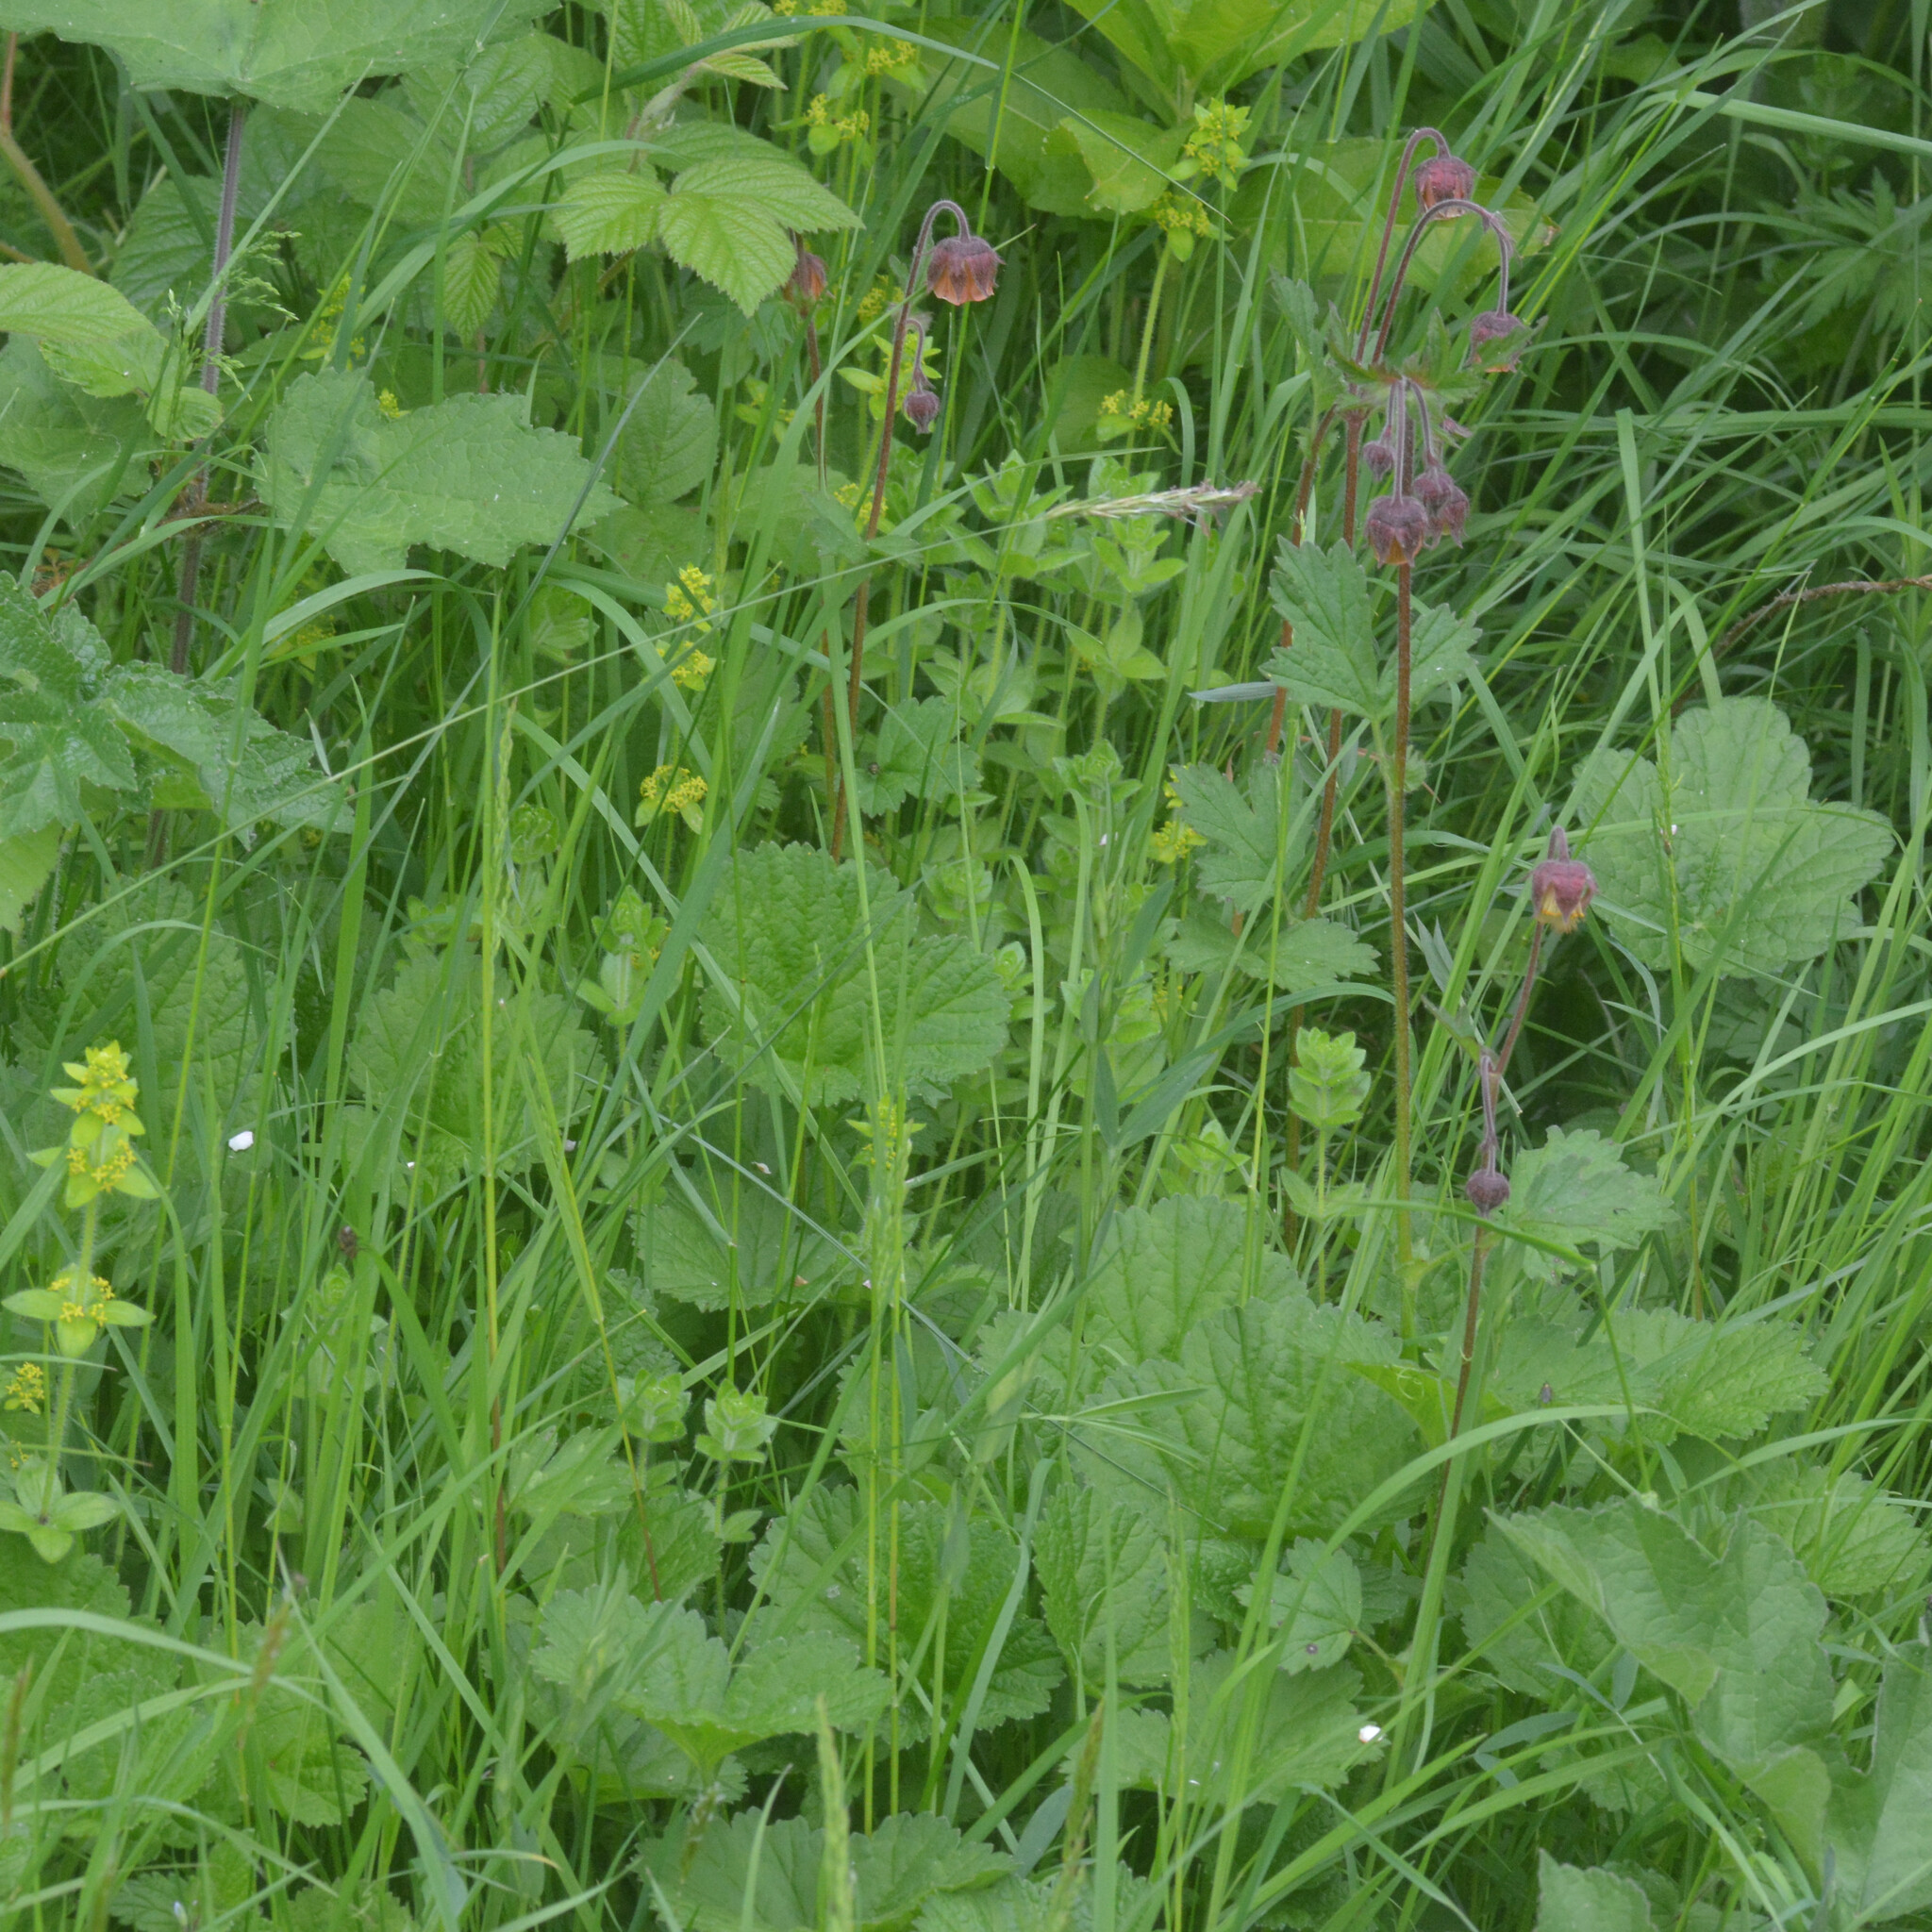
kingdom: Plantae
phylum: Tracheophyta
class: Magnoliopsida
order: Rosales
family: Rosaceae
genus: Geum
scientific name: Geum rivale
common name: Water avens
